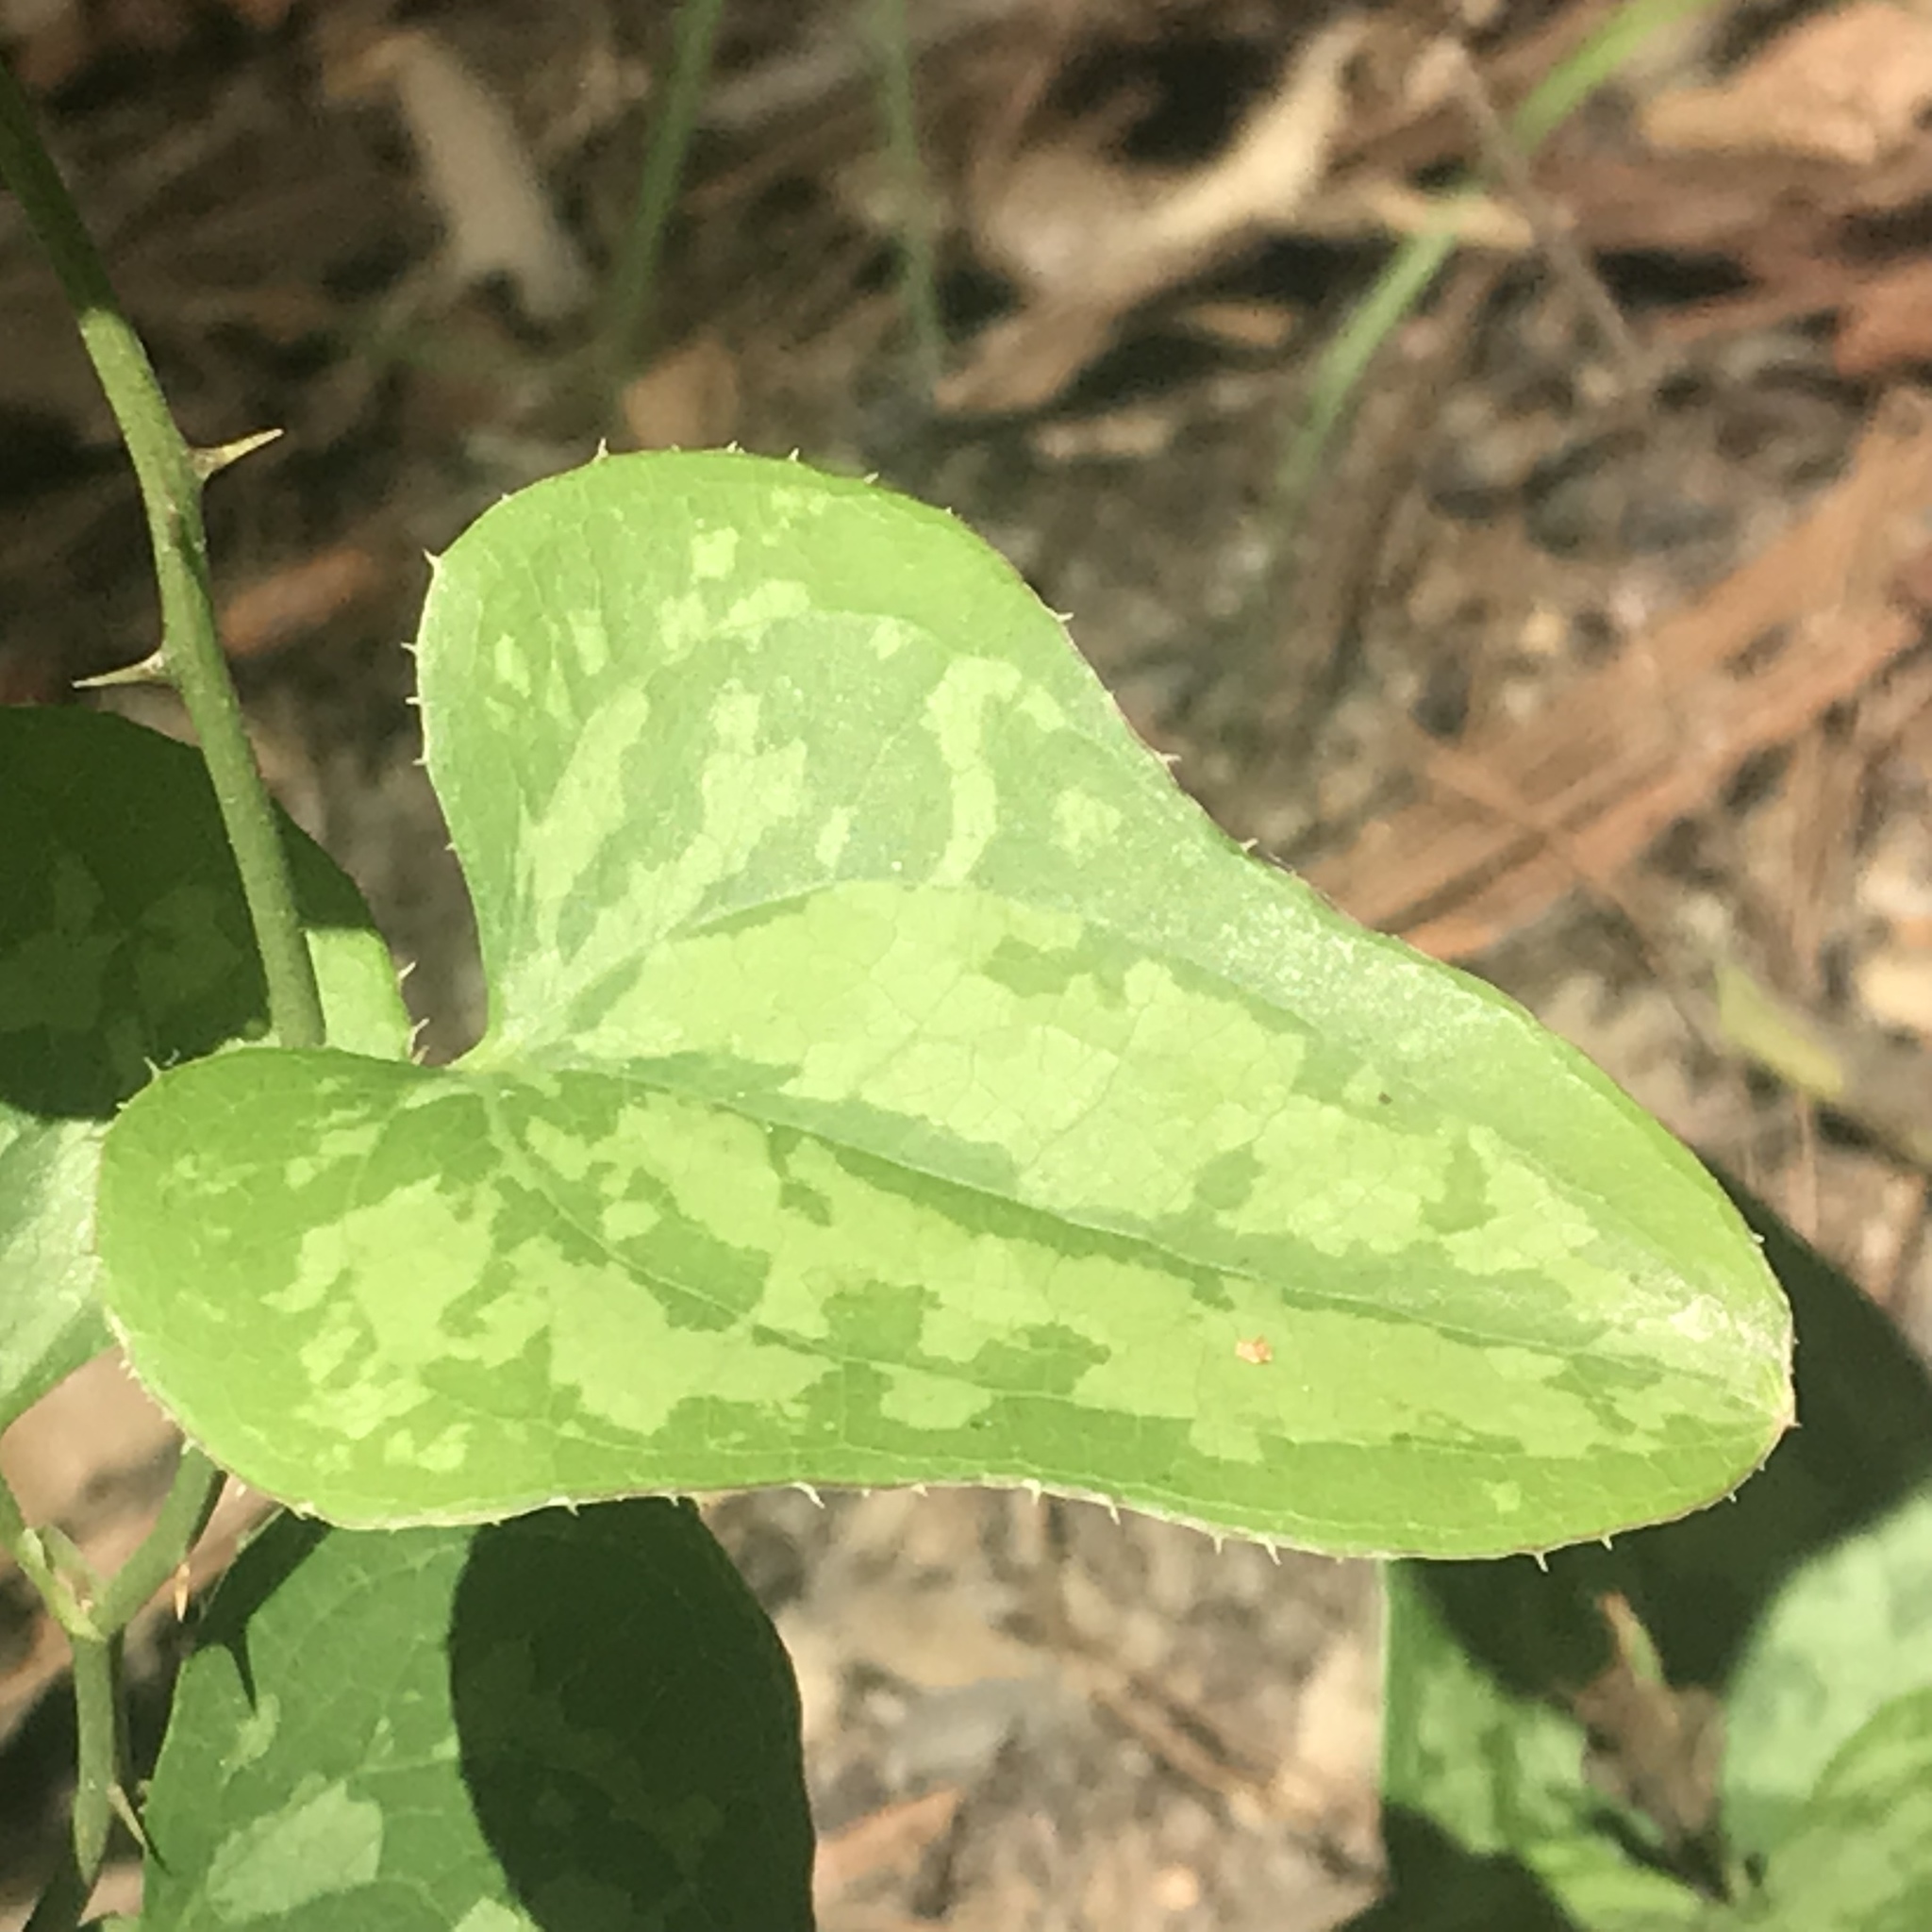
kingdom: Plantae
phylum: Tracheophyta
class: Liliopsida
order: Liliales
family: Smilacaceae
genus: Smilax
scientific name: Smilax bona-nox
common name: Catbrier
